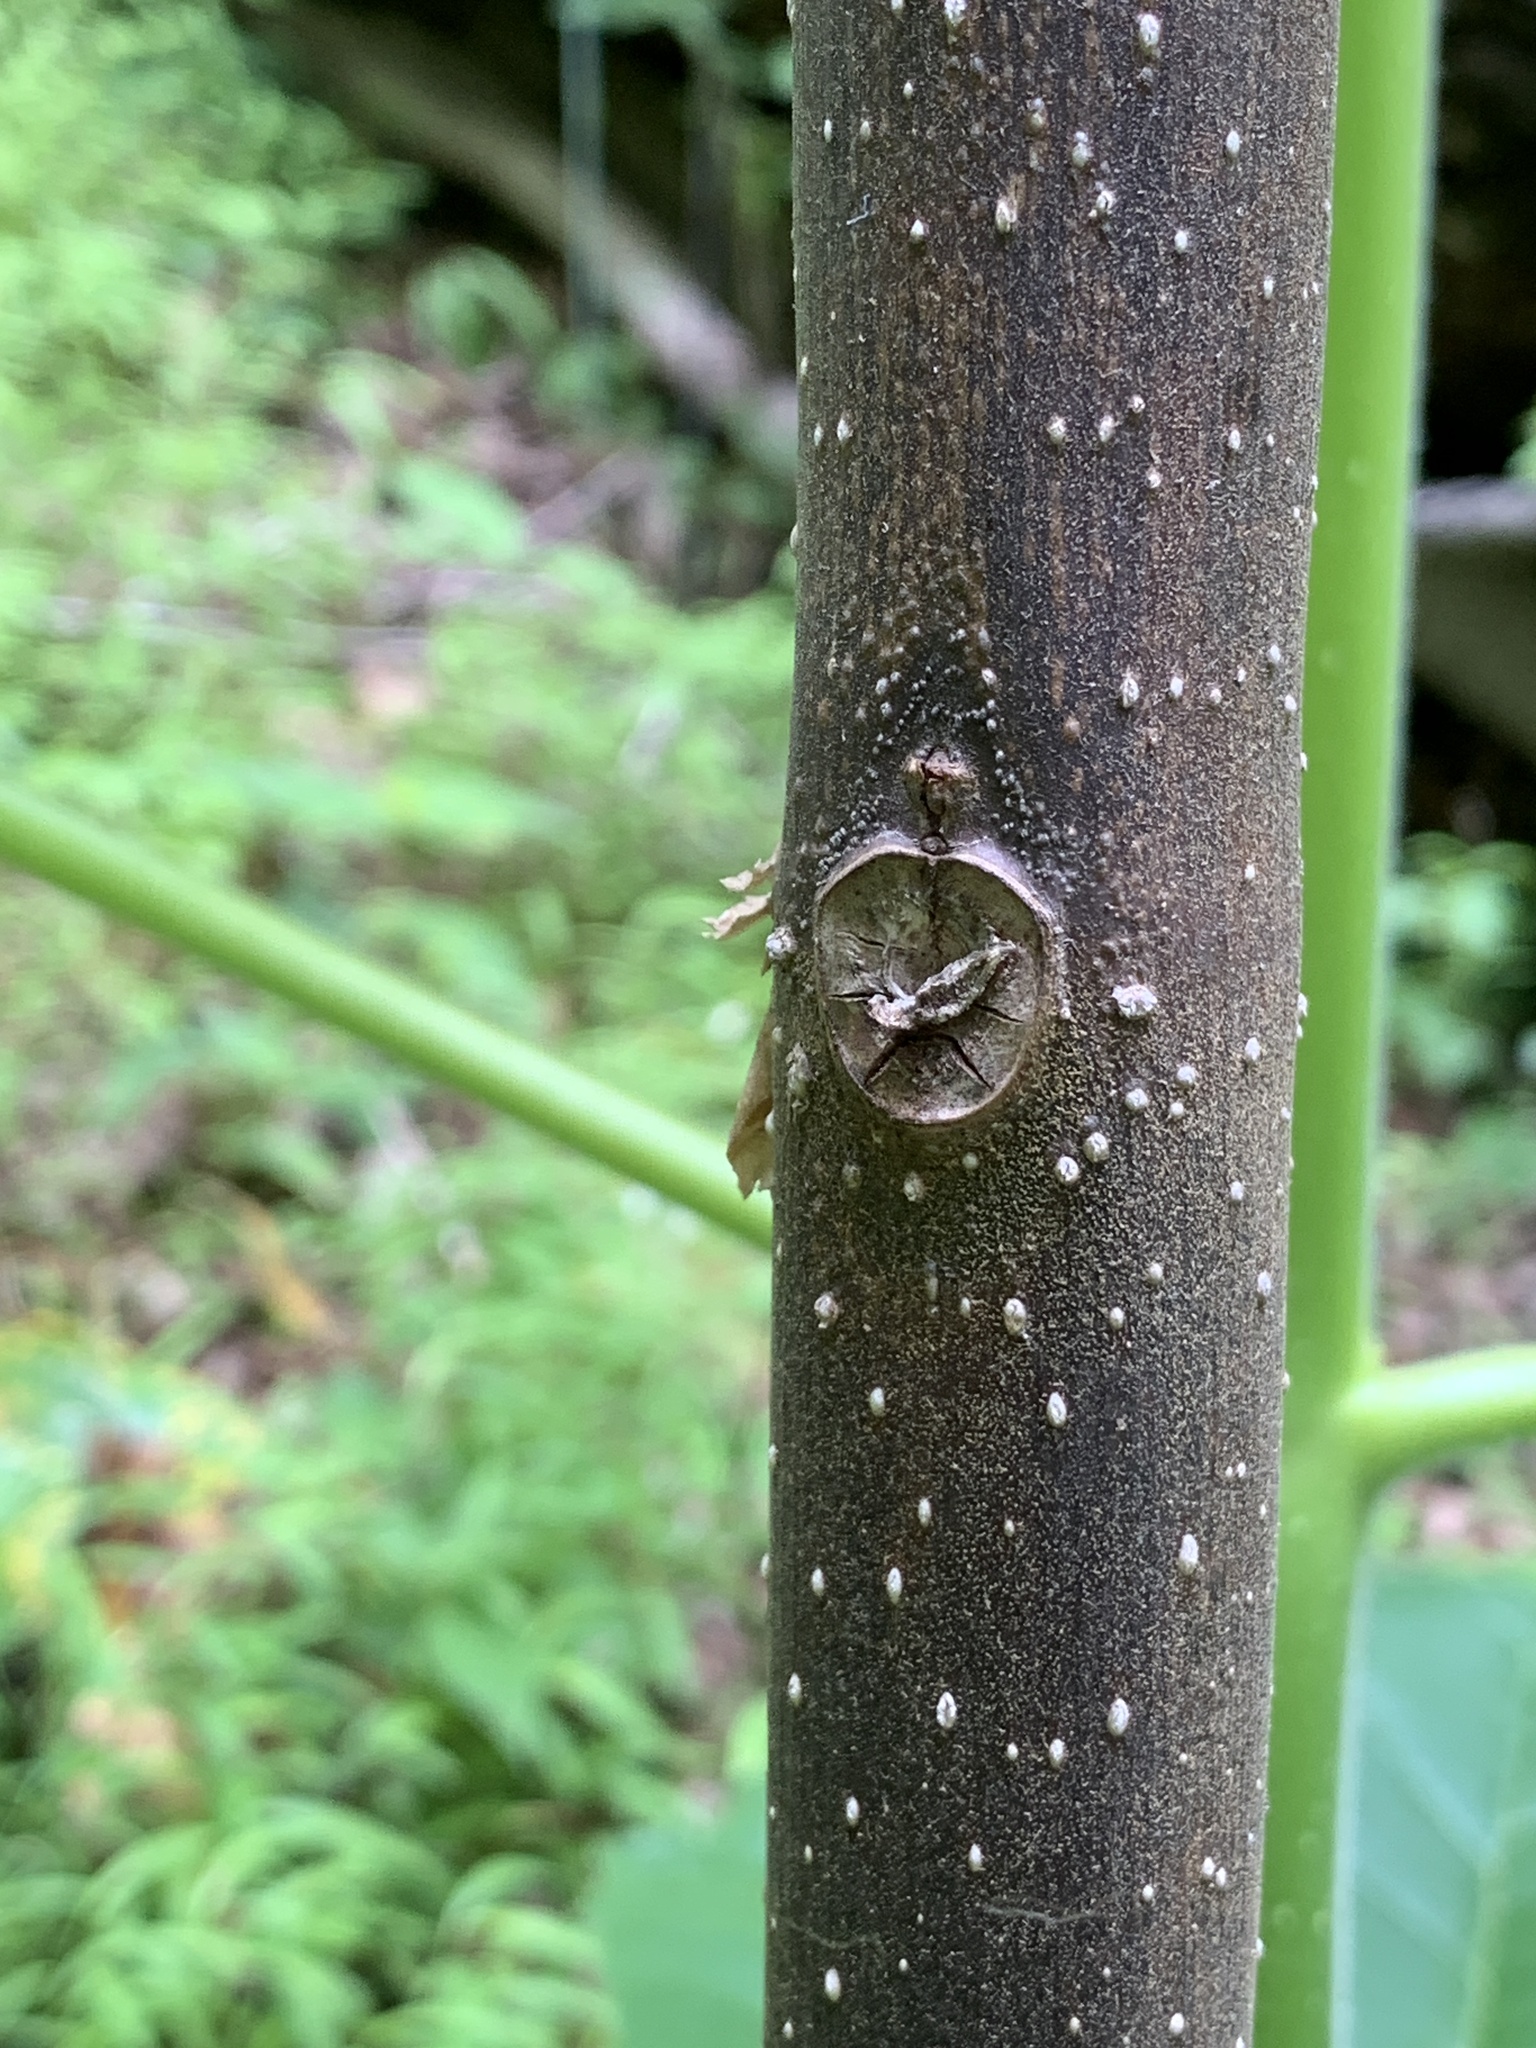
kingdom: Plantae
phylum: Tracheophyta
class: Magnoliopsida
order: Lamiales
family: Paulowniaceae
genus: Paulownia
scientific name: Paulownia tomentosa
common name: Foxglove-tree
